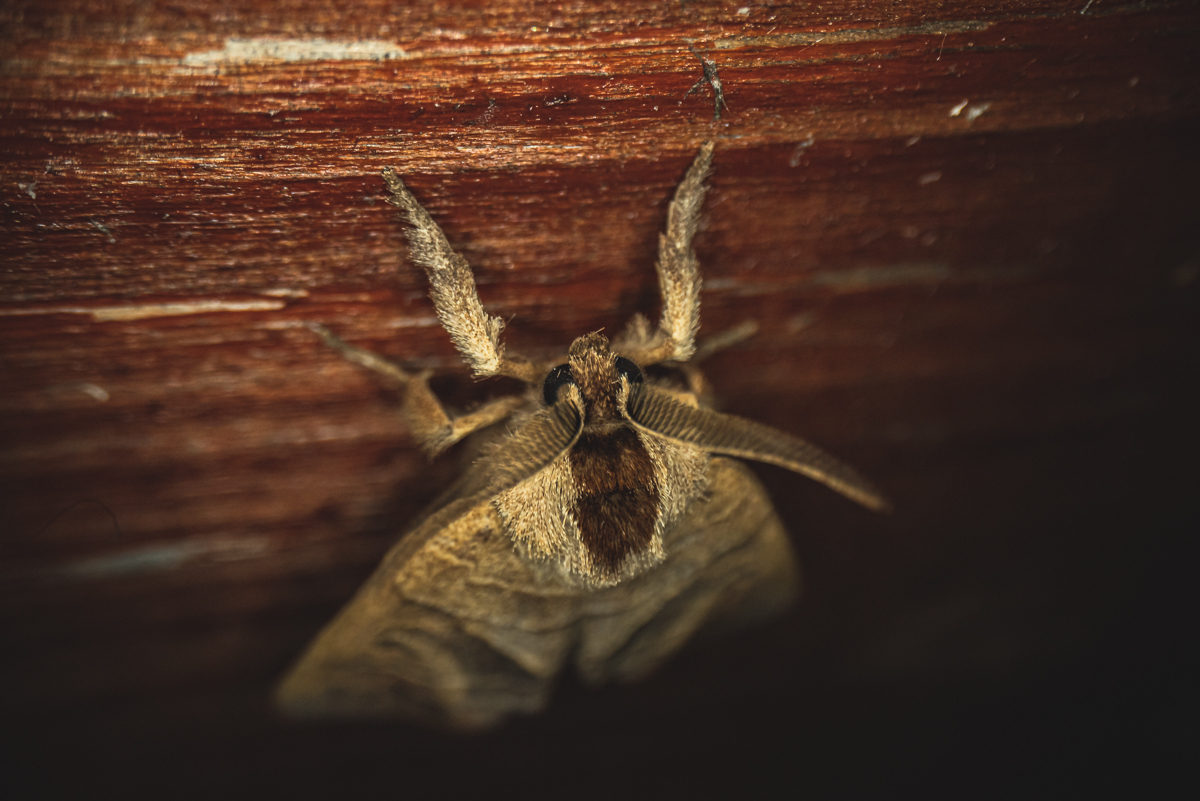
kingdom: Animalia
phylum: Arthropoda
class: Insecta
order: Lepidoptera
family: Notodontidae
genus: Clostera
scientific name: Clostera anastomosis
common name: Poplar tip moth
